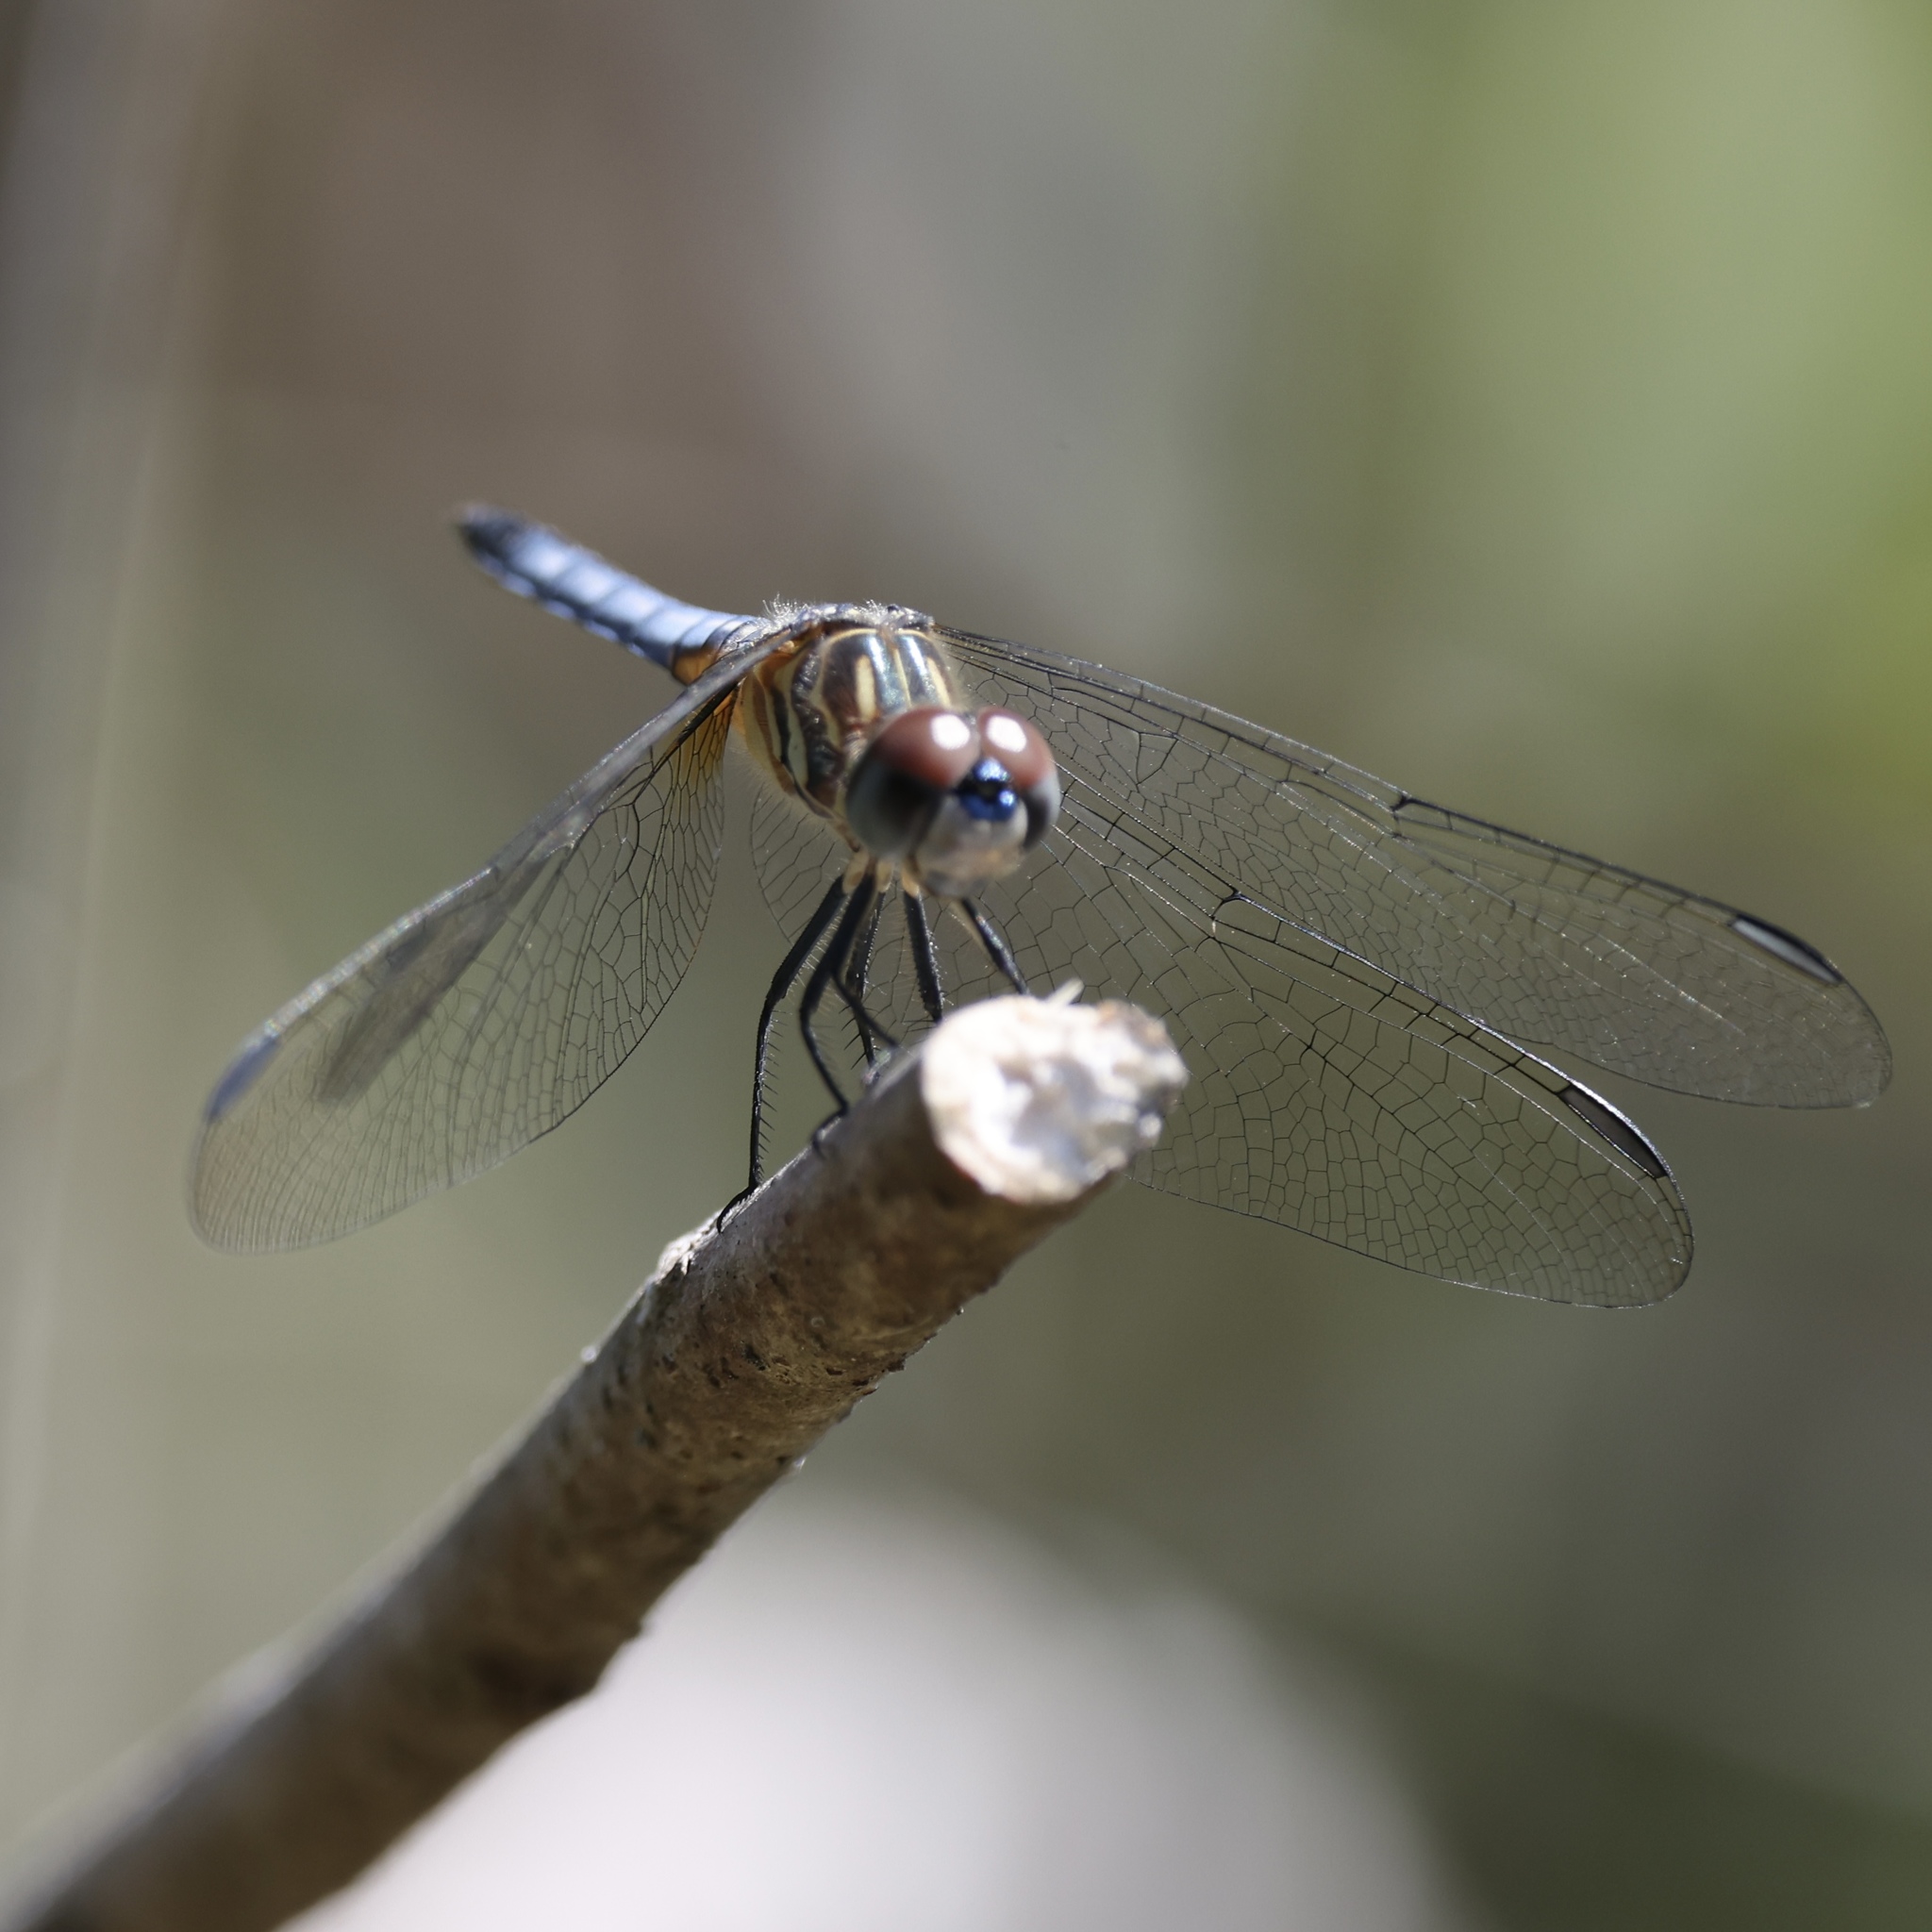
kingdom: Animalia
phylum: Arthropoda
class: Insecta
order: Odonata
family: Libellulidae
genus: Pachydiplax
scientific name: Pachydiplax longipennis
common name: Blue dasher
